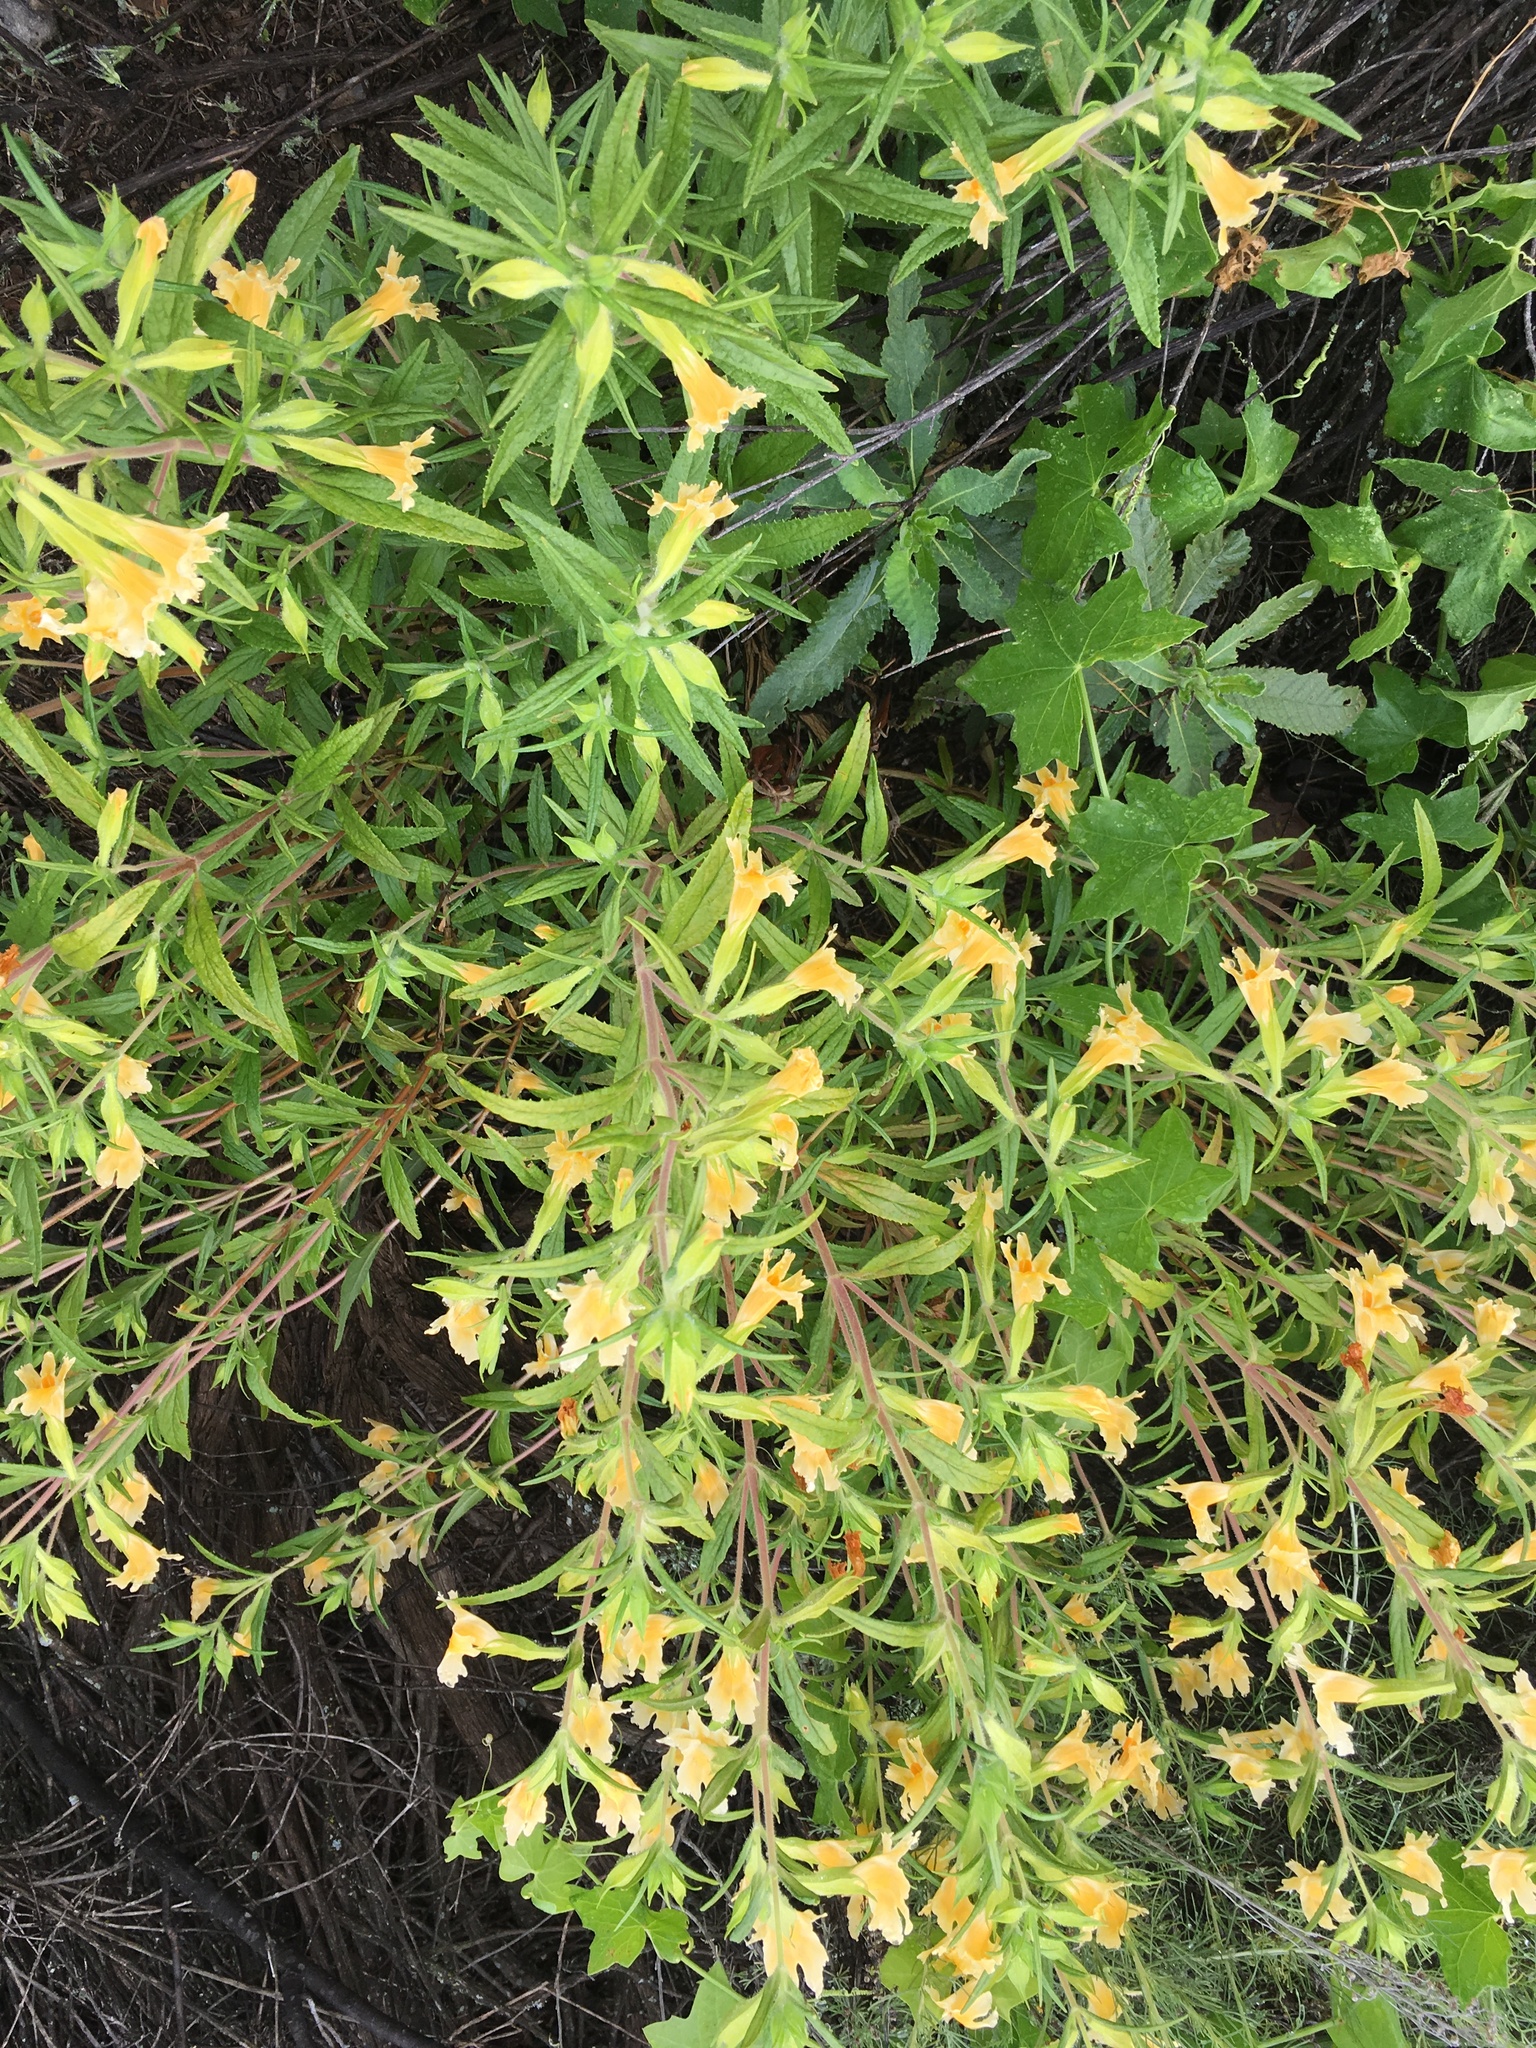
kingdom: Plantae
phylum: Tracheophyta
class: Magnoliopsida
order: Lamiales
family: Phrymaceae
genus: Diplacus
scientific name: Diplacus longiflorus
